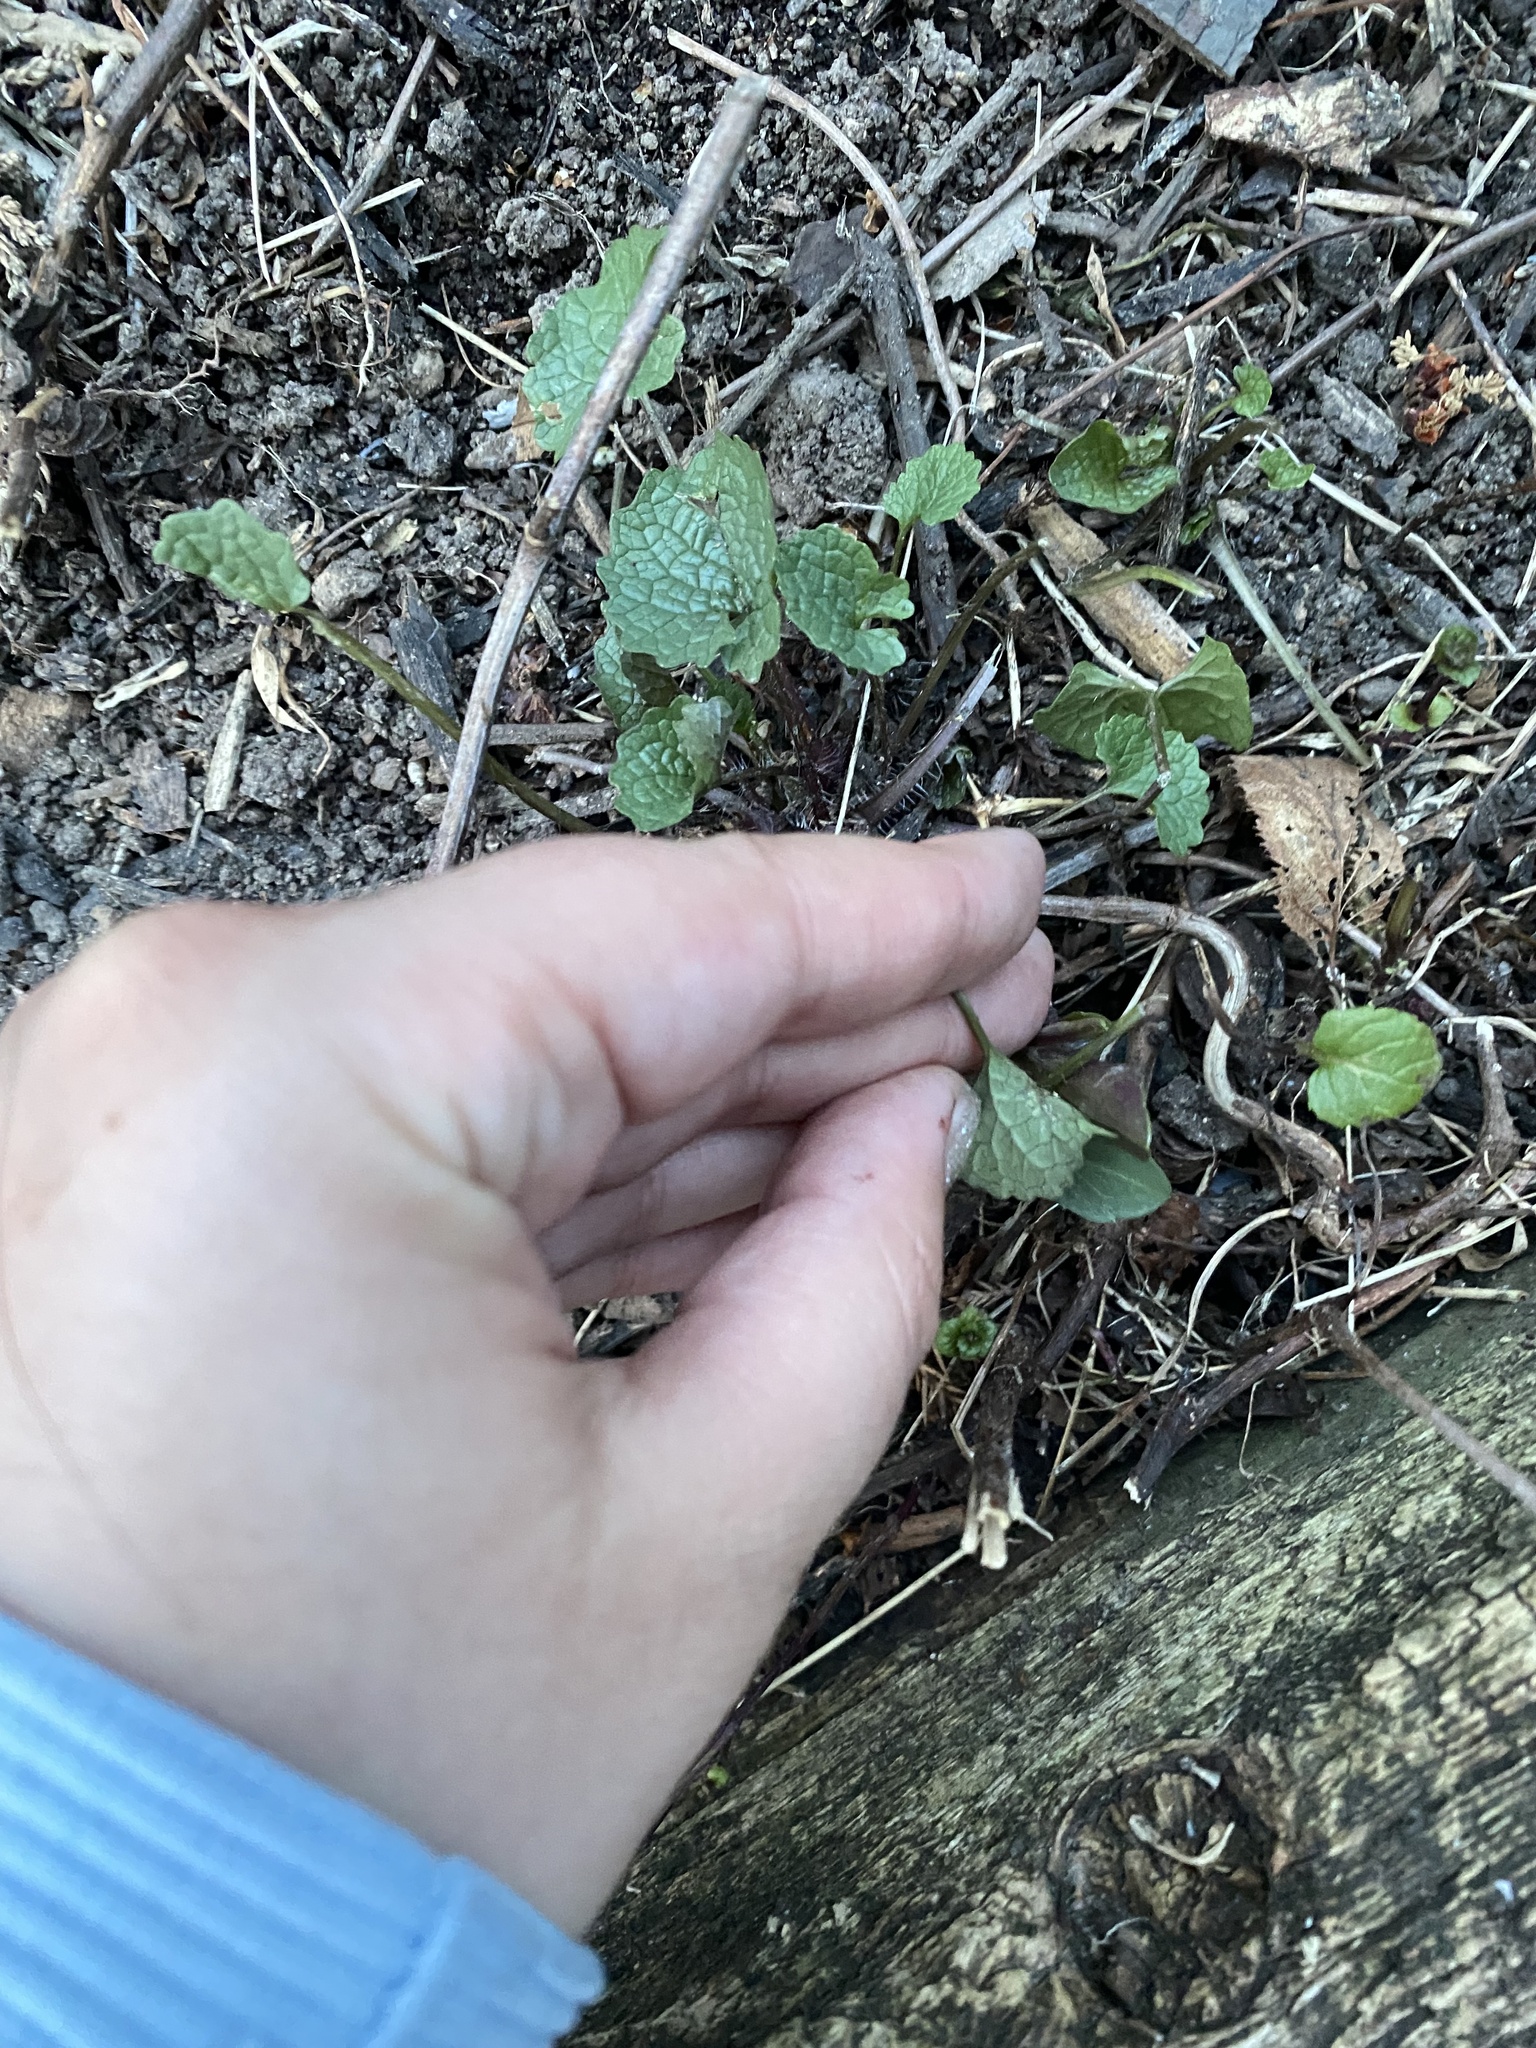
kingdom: Plantae
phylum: Tracheophyta
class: Magnoliopsida
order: Brassicales
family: Brassicaceae
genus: Alliaria
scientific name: Alliaria petiolata
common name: Garlic mustard
